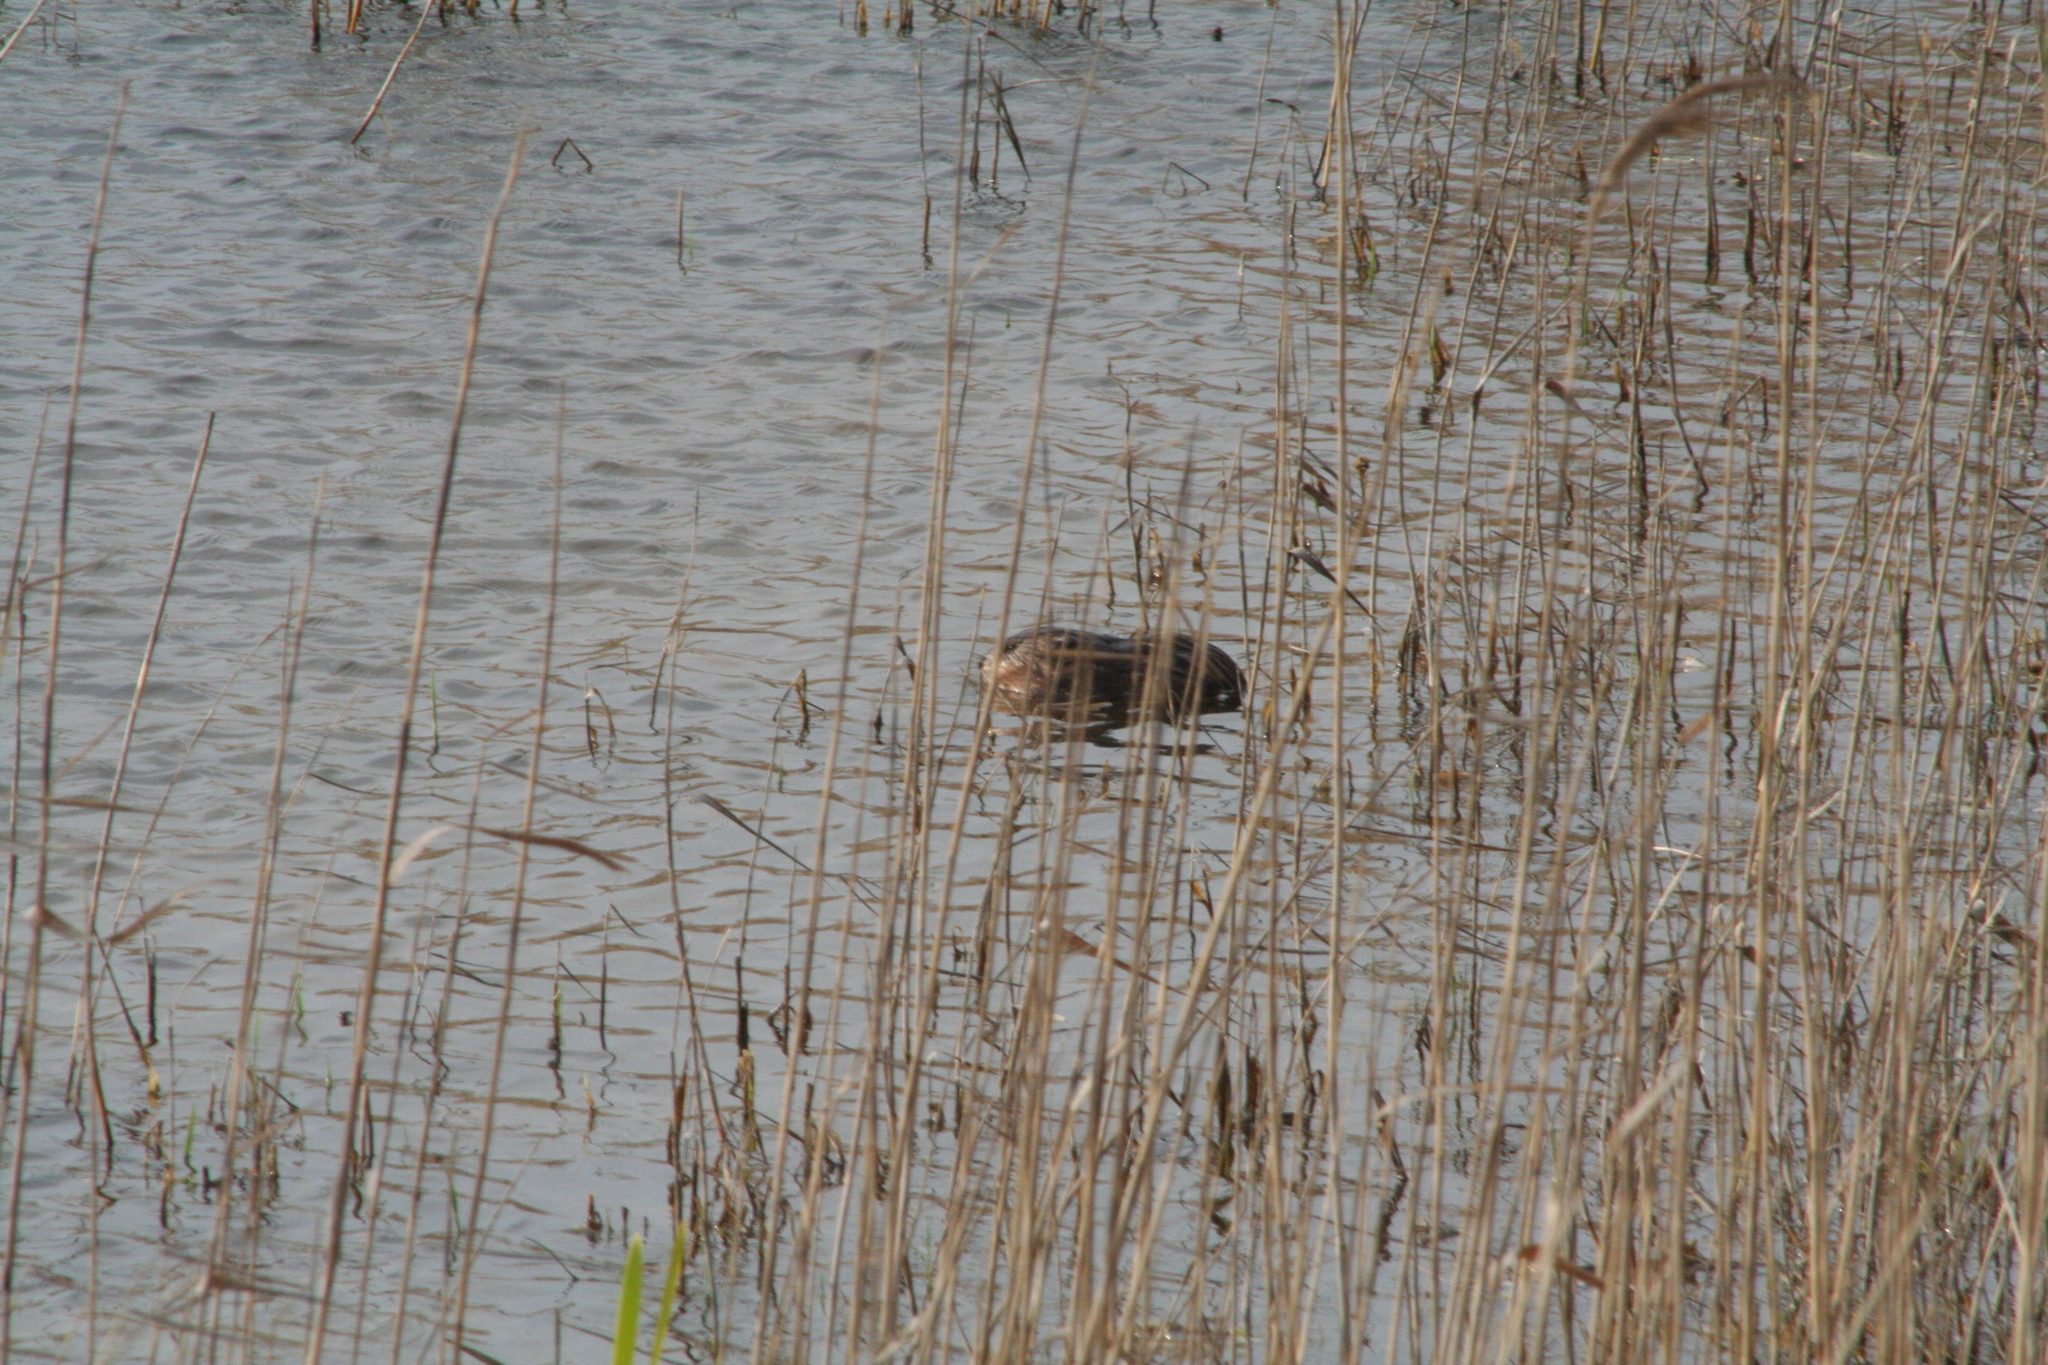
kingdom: Animalia
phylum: Chordata
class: Mammalia
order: Rodentia
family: Cricetidae
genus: Ondatra
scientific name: Ondatra zibethicus
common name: Muskrat
